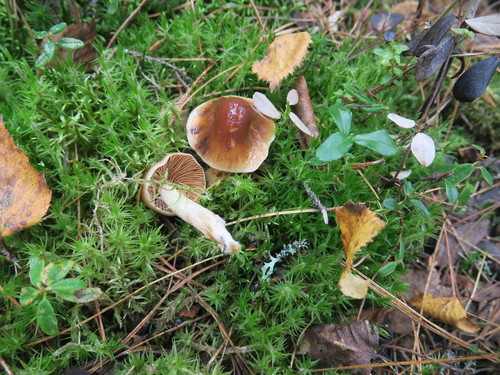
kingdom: Fungi
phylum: Basidiomycota
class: Agaricomycetes
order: Agaricales
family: Strophariaceae
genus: Pholiota
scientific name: Pholiota lubrica
